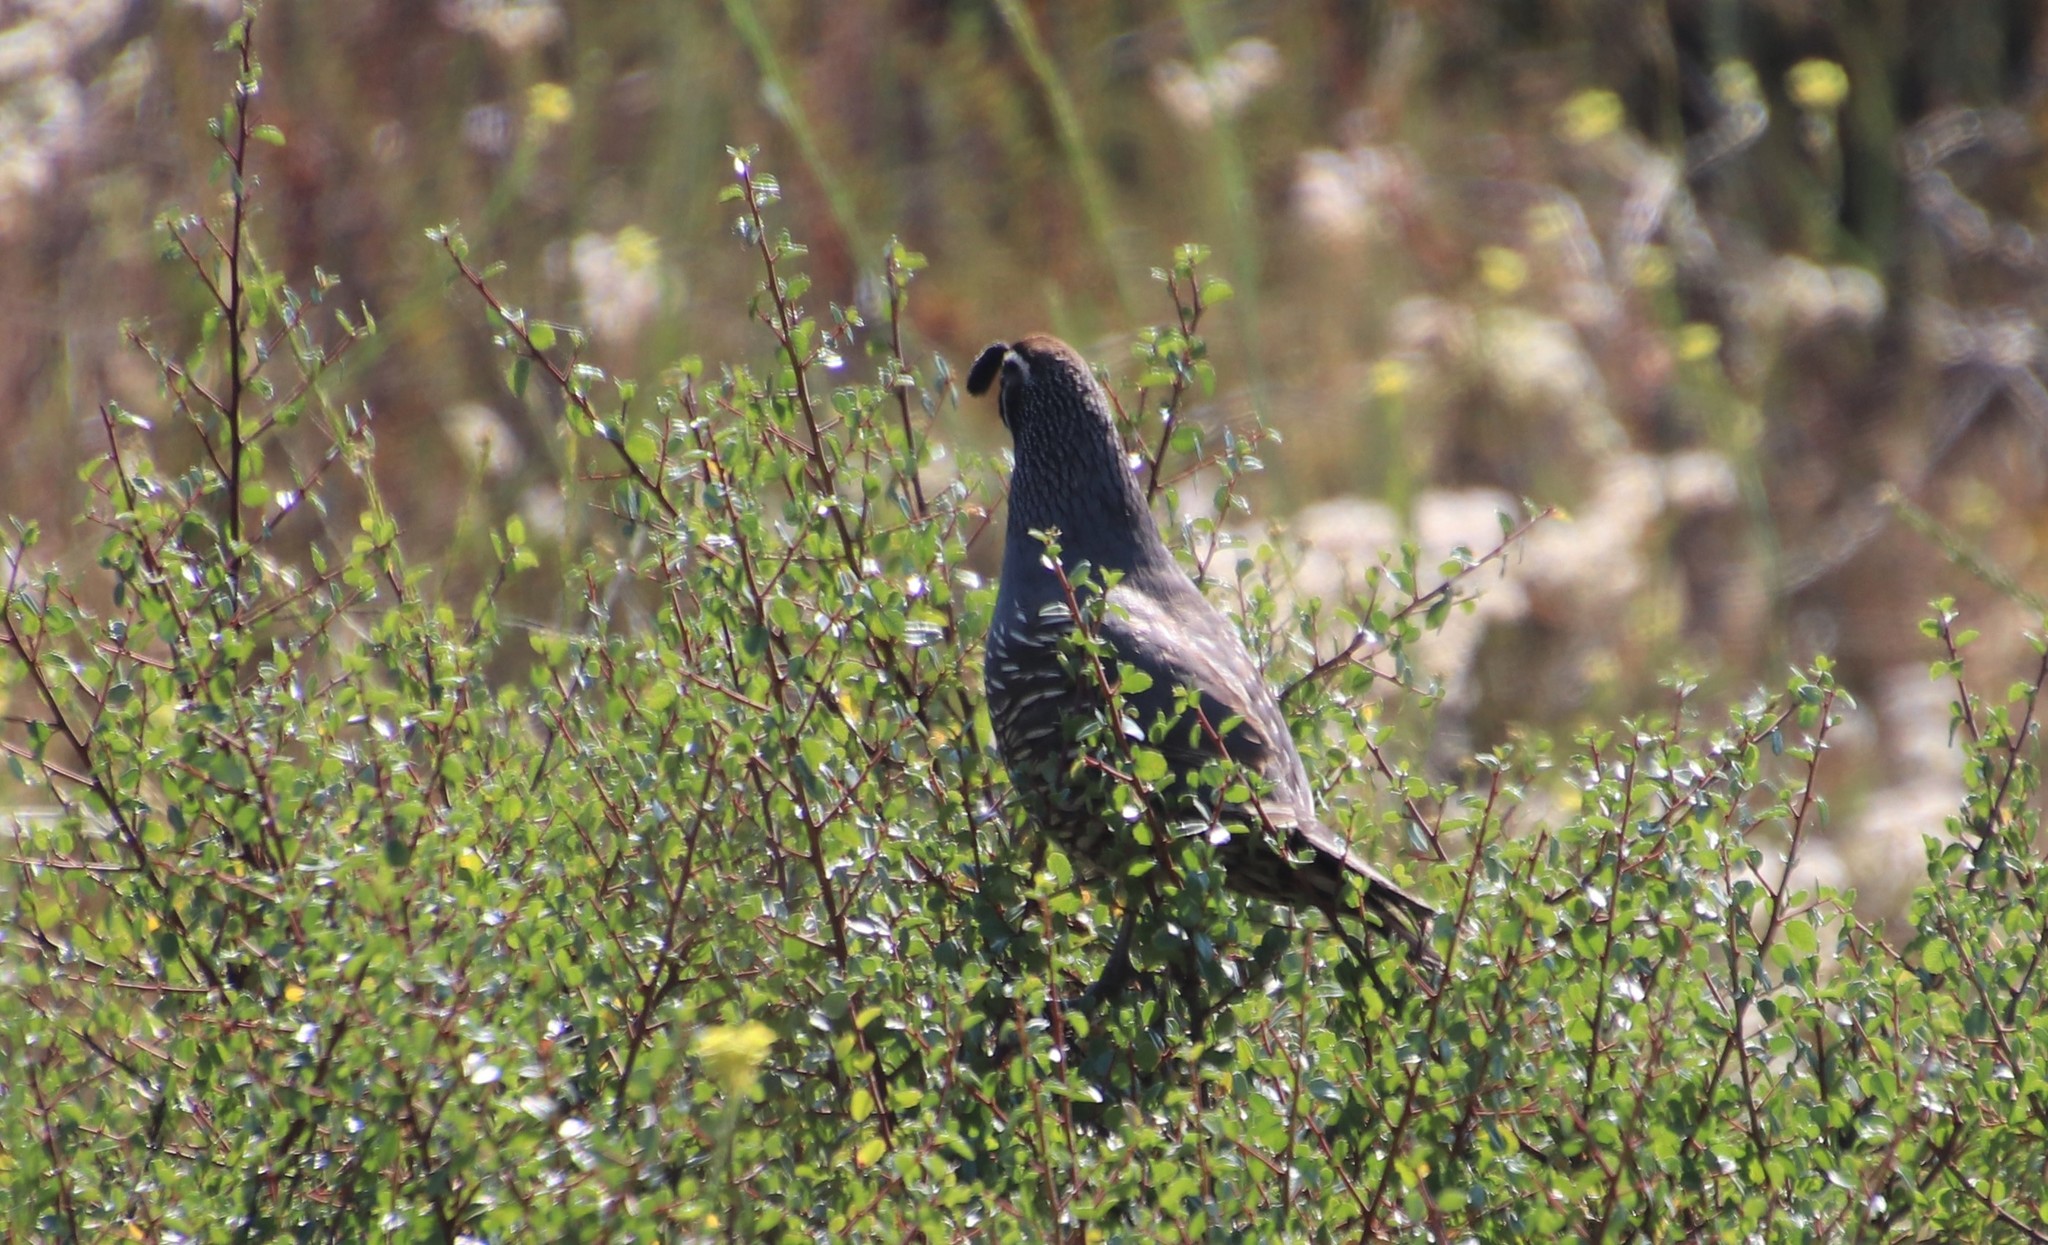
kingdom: Animalia
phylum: Chordata
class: Aves
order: Galliformes
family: Odontophoridae
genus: Callipepla
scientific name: Callipepla californica
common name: California quail
